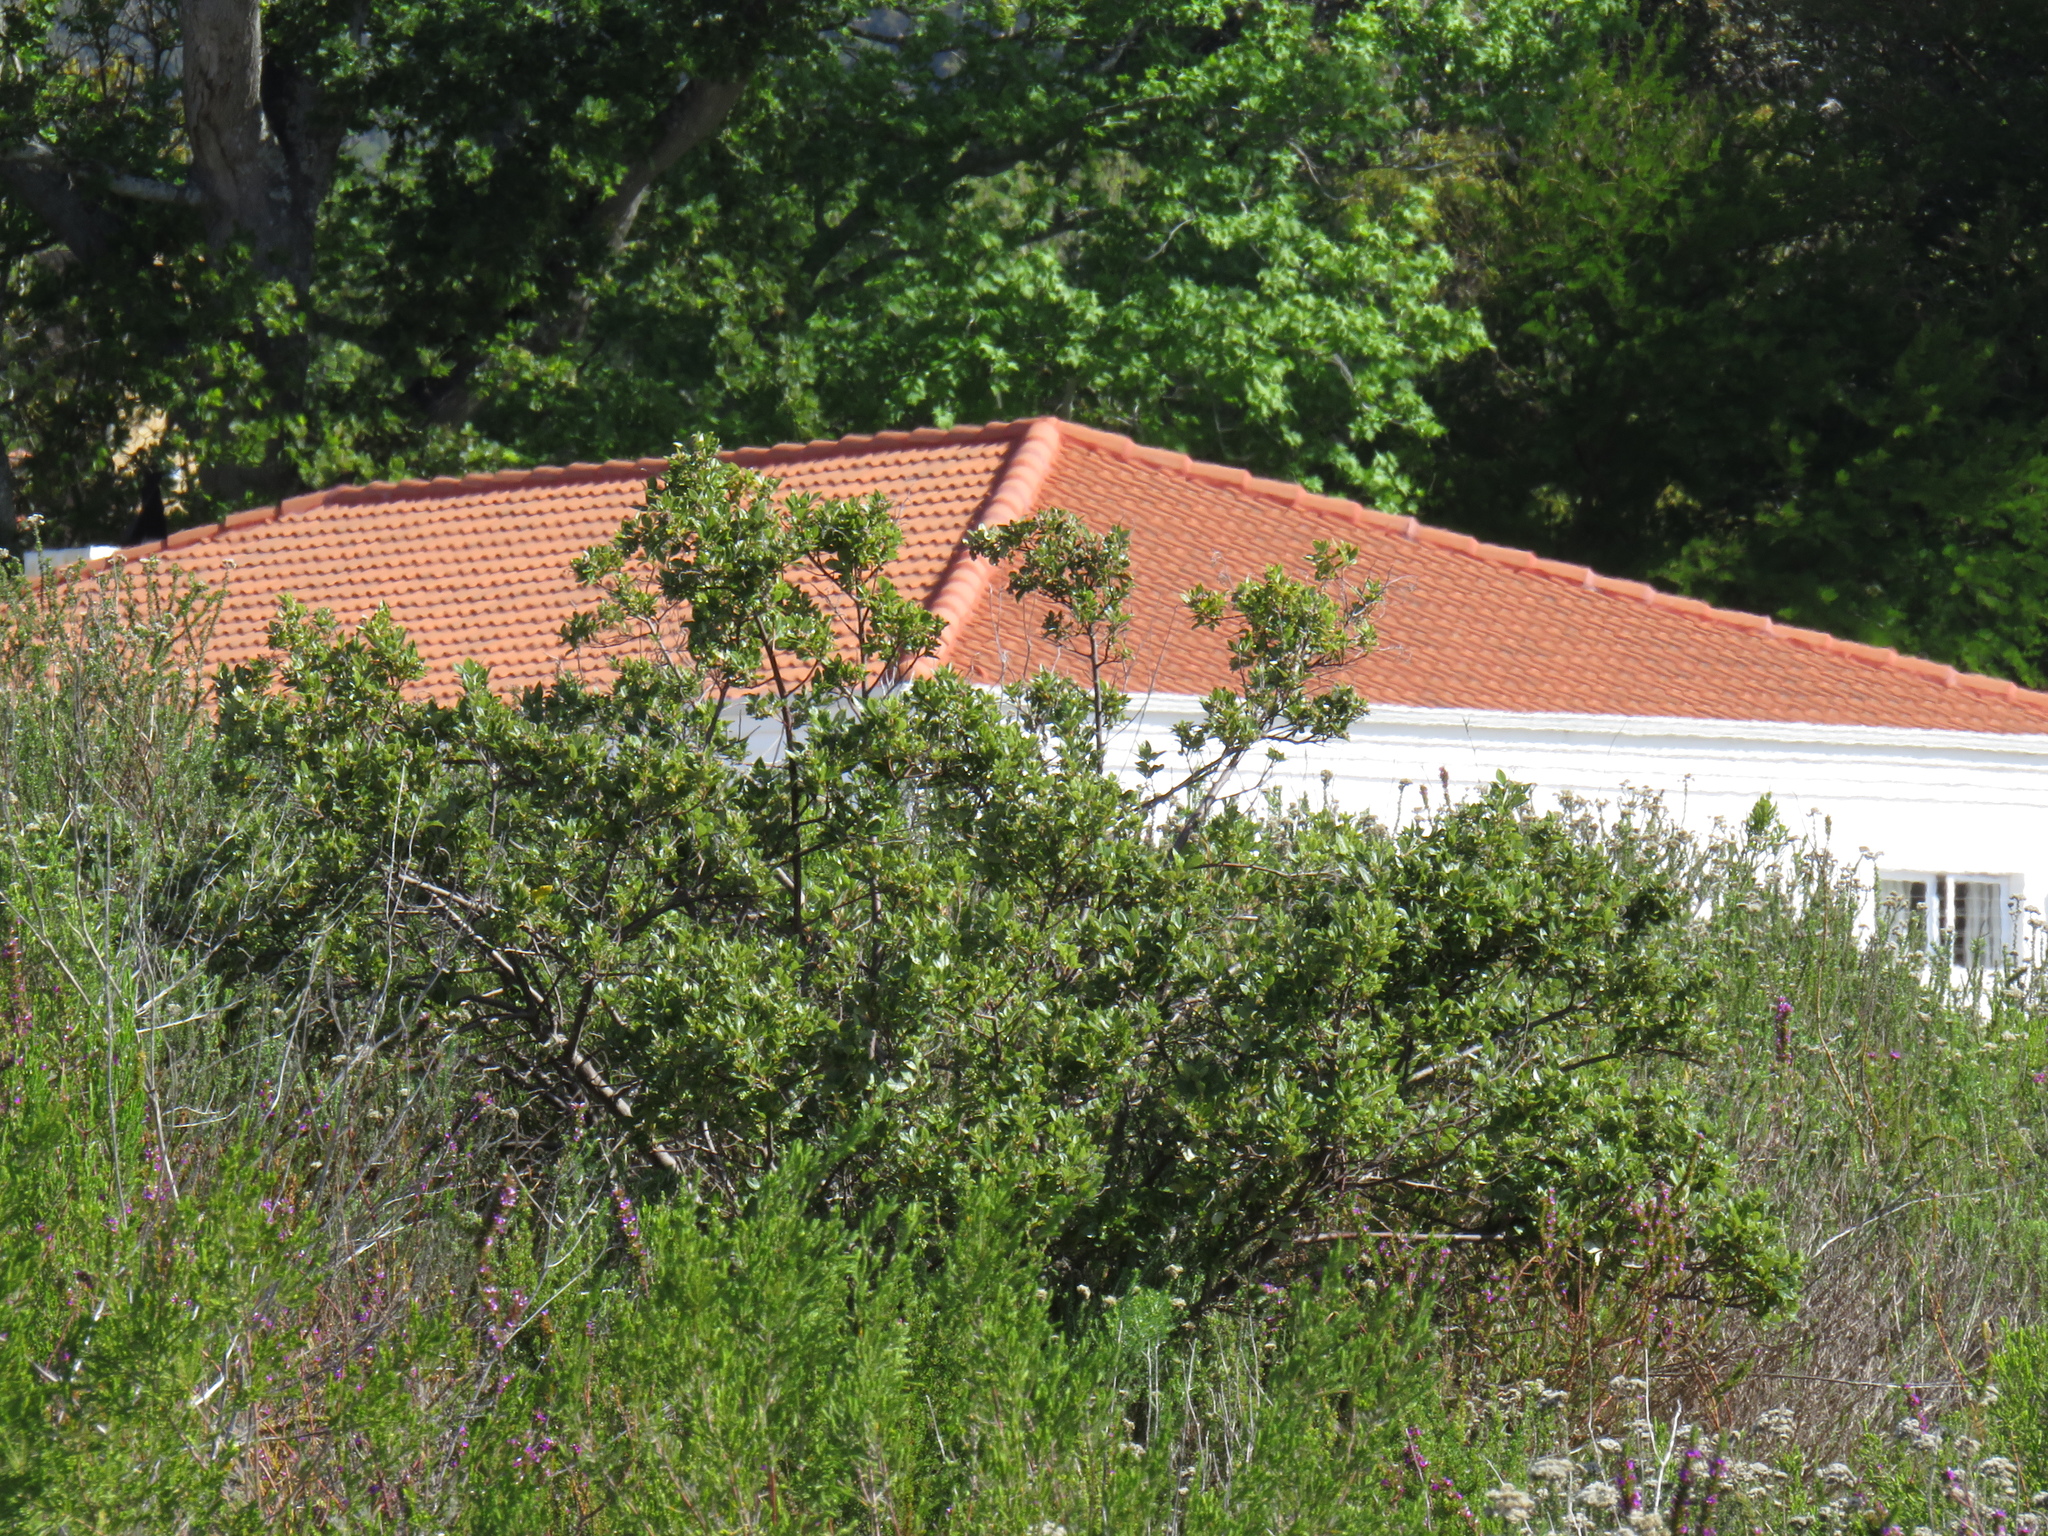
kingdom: Plantae
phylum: Tracheophyta
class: Magnoliopsida
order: Sapindales
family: Anacardiaceae
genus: Searsia
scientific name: Searsia tomentosa
